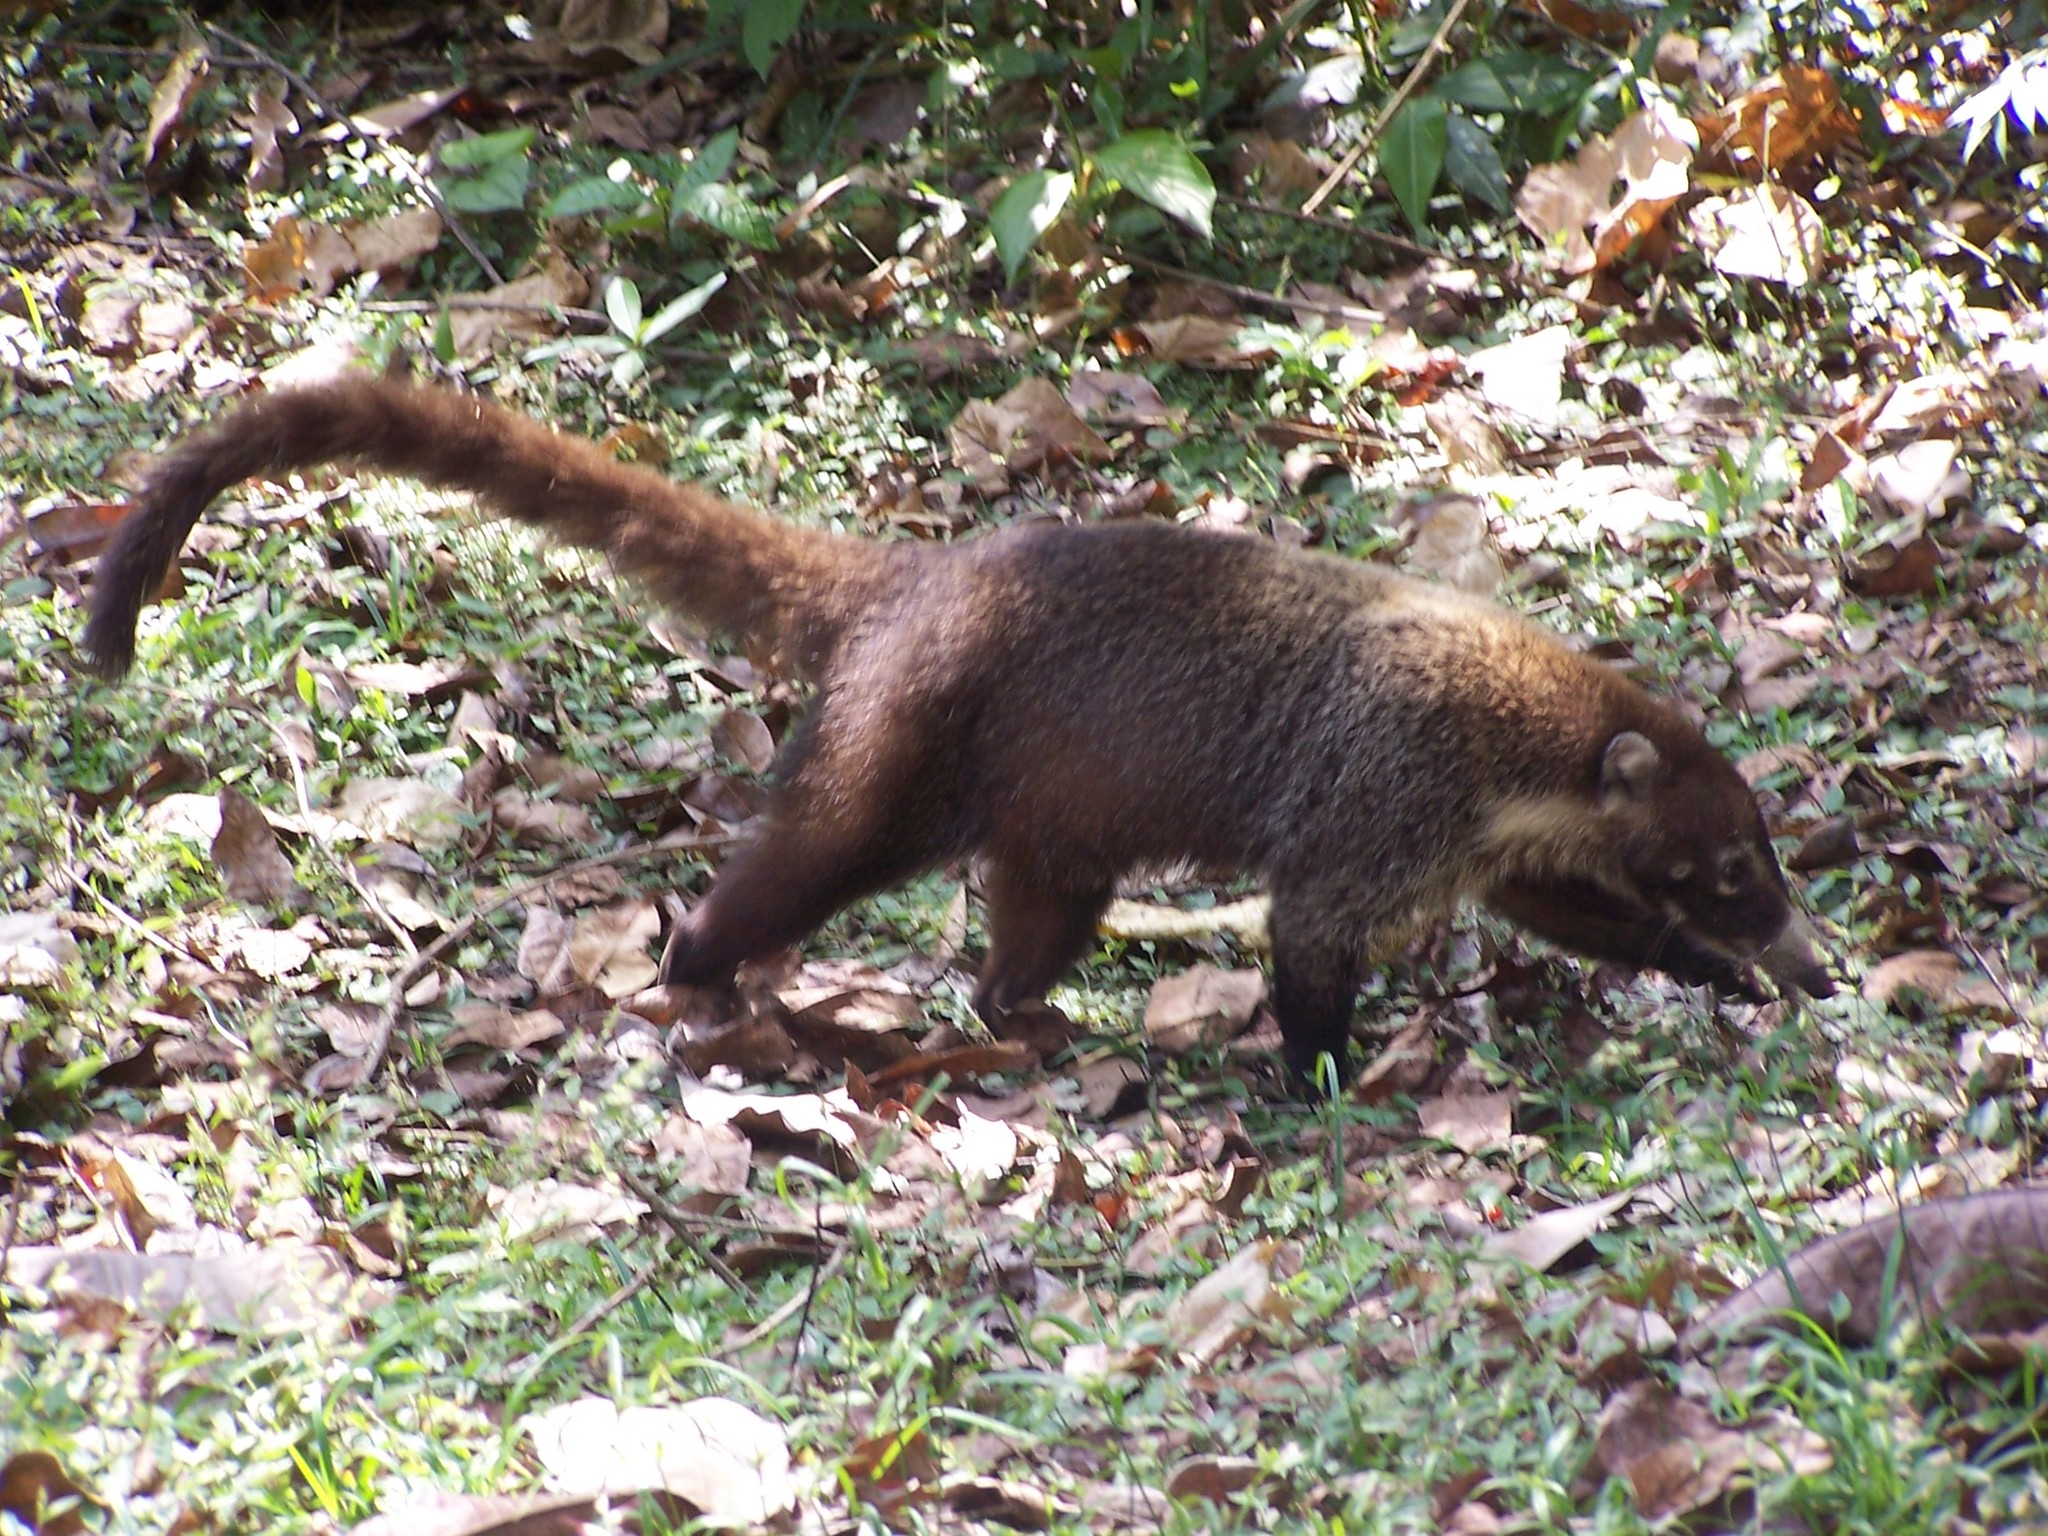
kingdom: Animalia
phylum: Chordata
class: Mammalia
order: Carnivora
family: Procyonidae
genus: Nasua
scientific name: Nasua narica
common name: White-nosed coati
